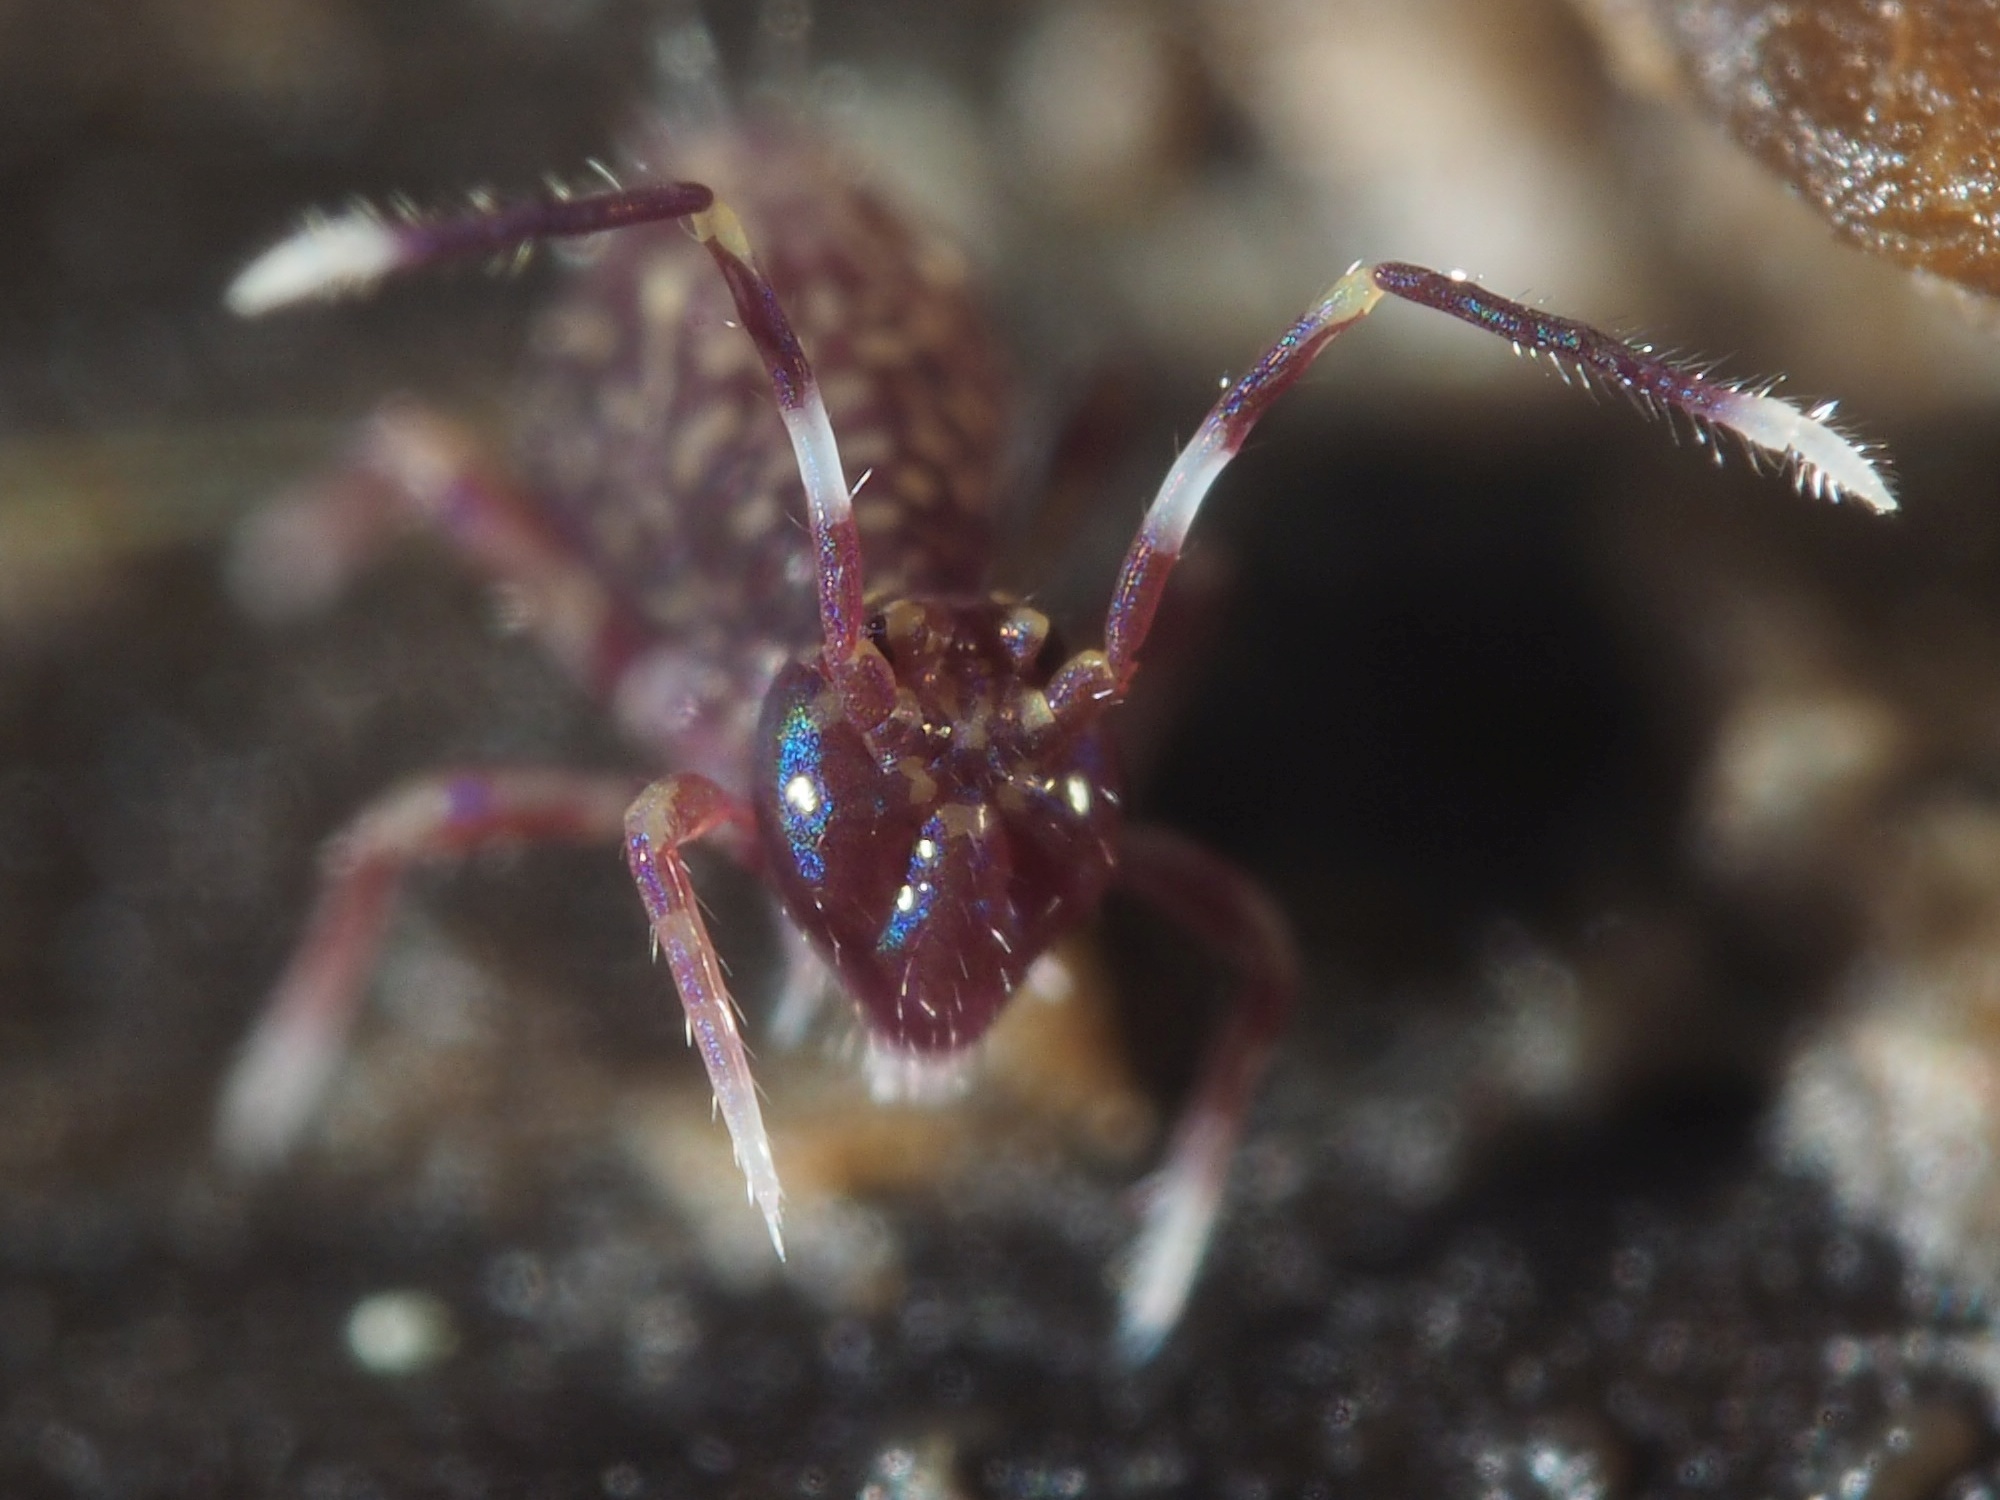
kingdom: Animalia
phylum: Arthropoda
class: Collembola
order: Symphypleona
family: Dicyrtomidae
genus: Ptenothrix
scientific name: Ptenothrix alveola
